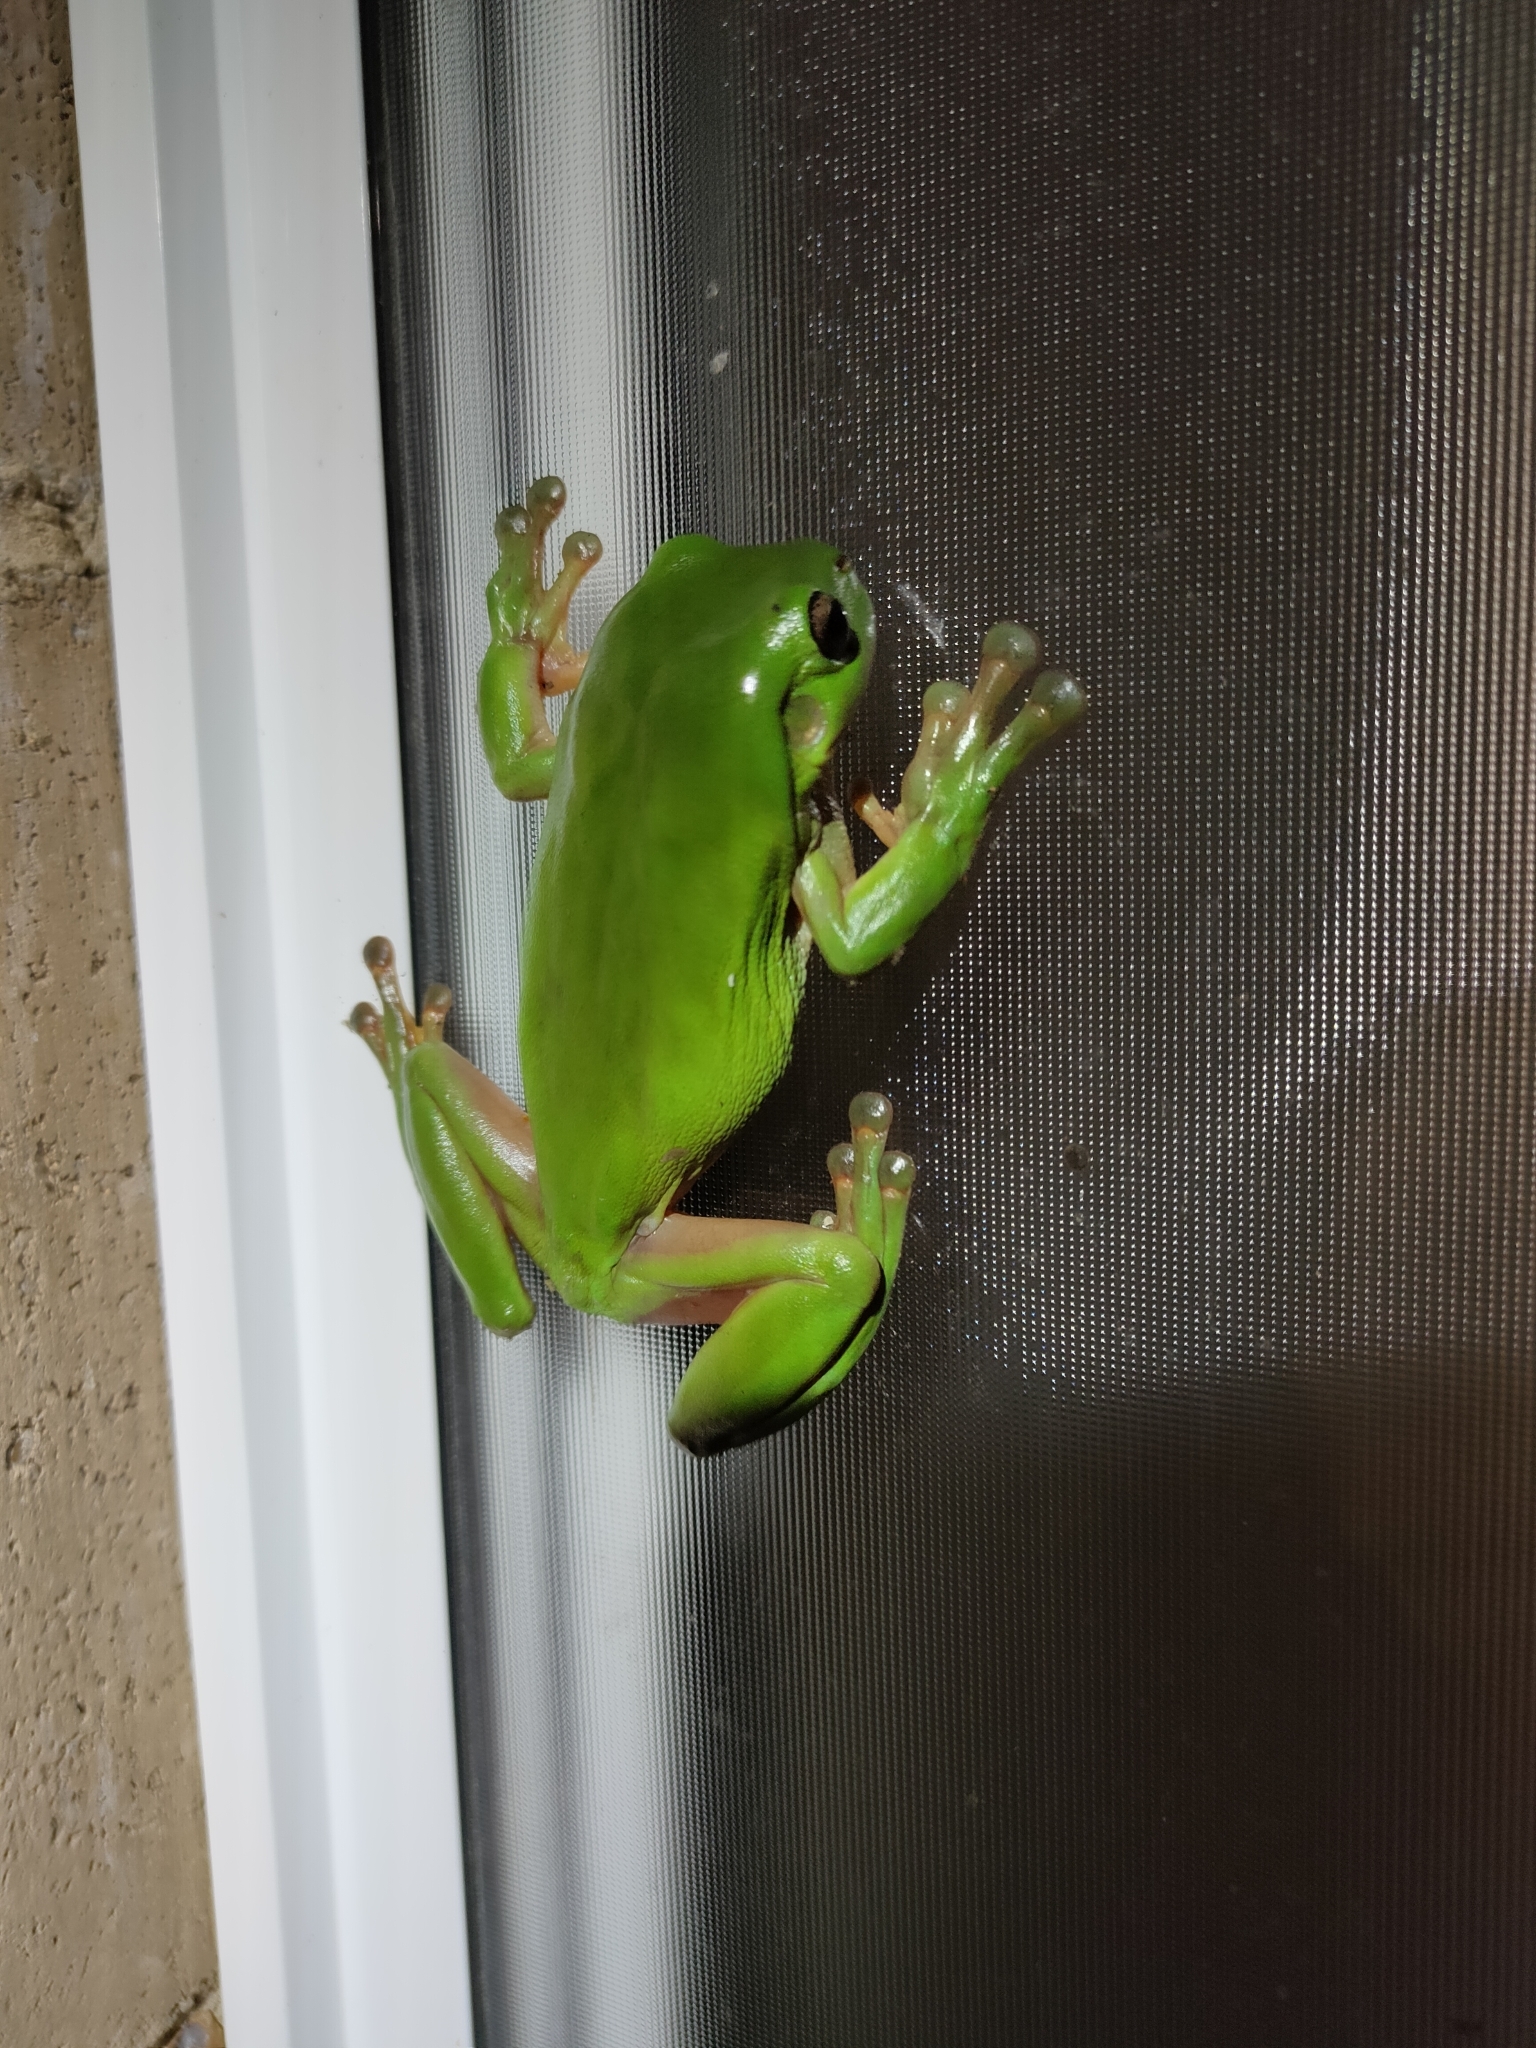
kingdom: Animalia
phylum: Chordata
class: Amphibia
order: Anura
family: Pelodryadidae
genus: Ranoidea
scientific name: Ranoidea caerulea
